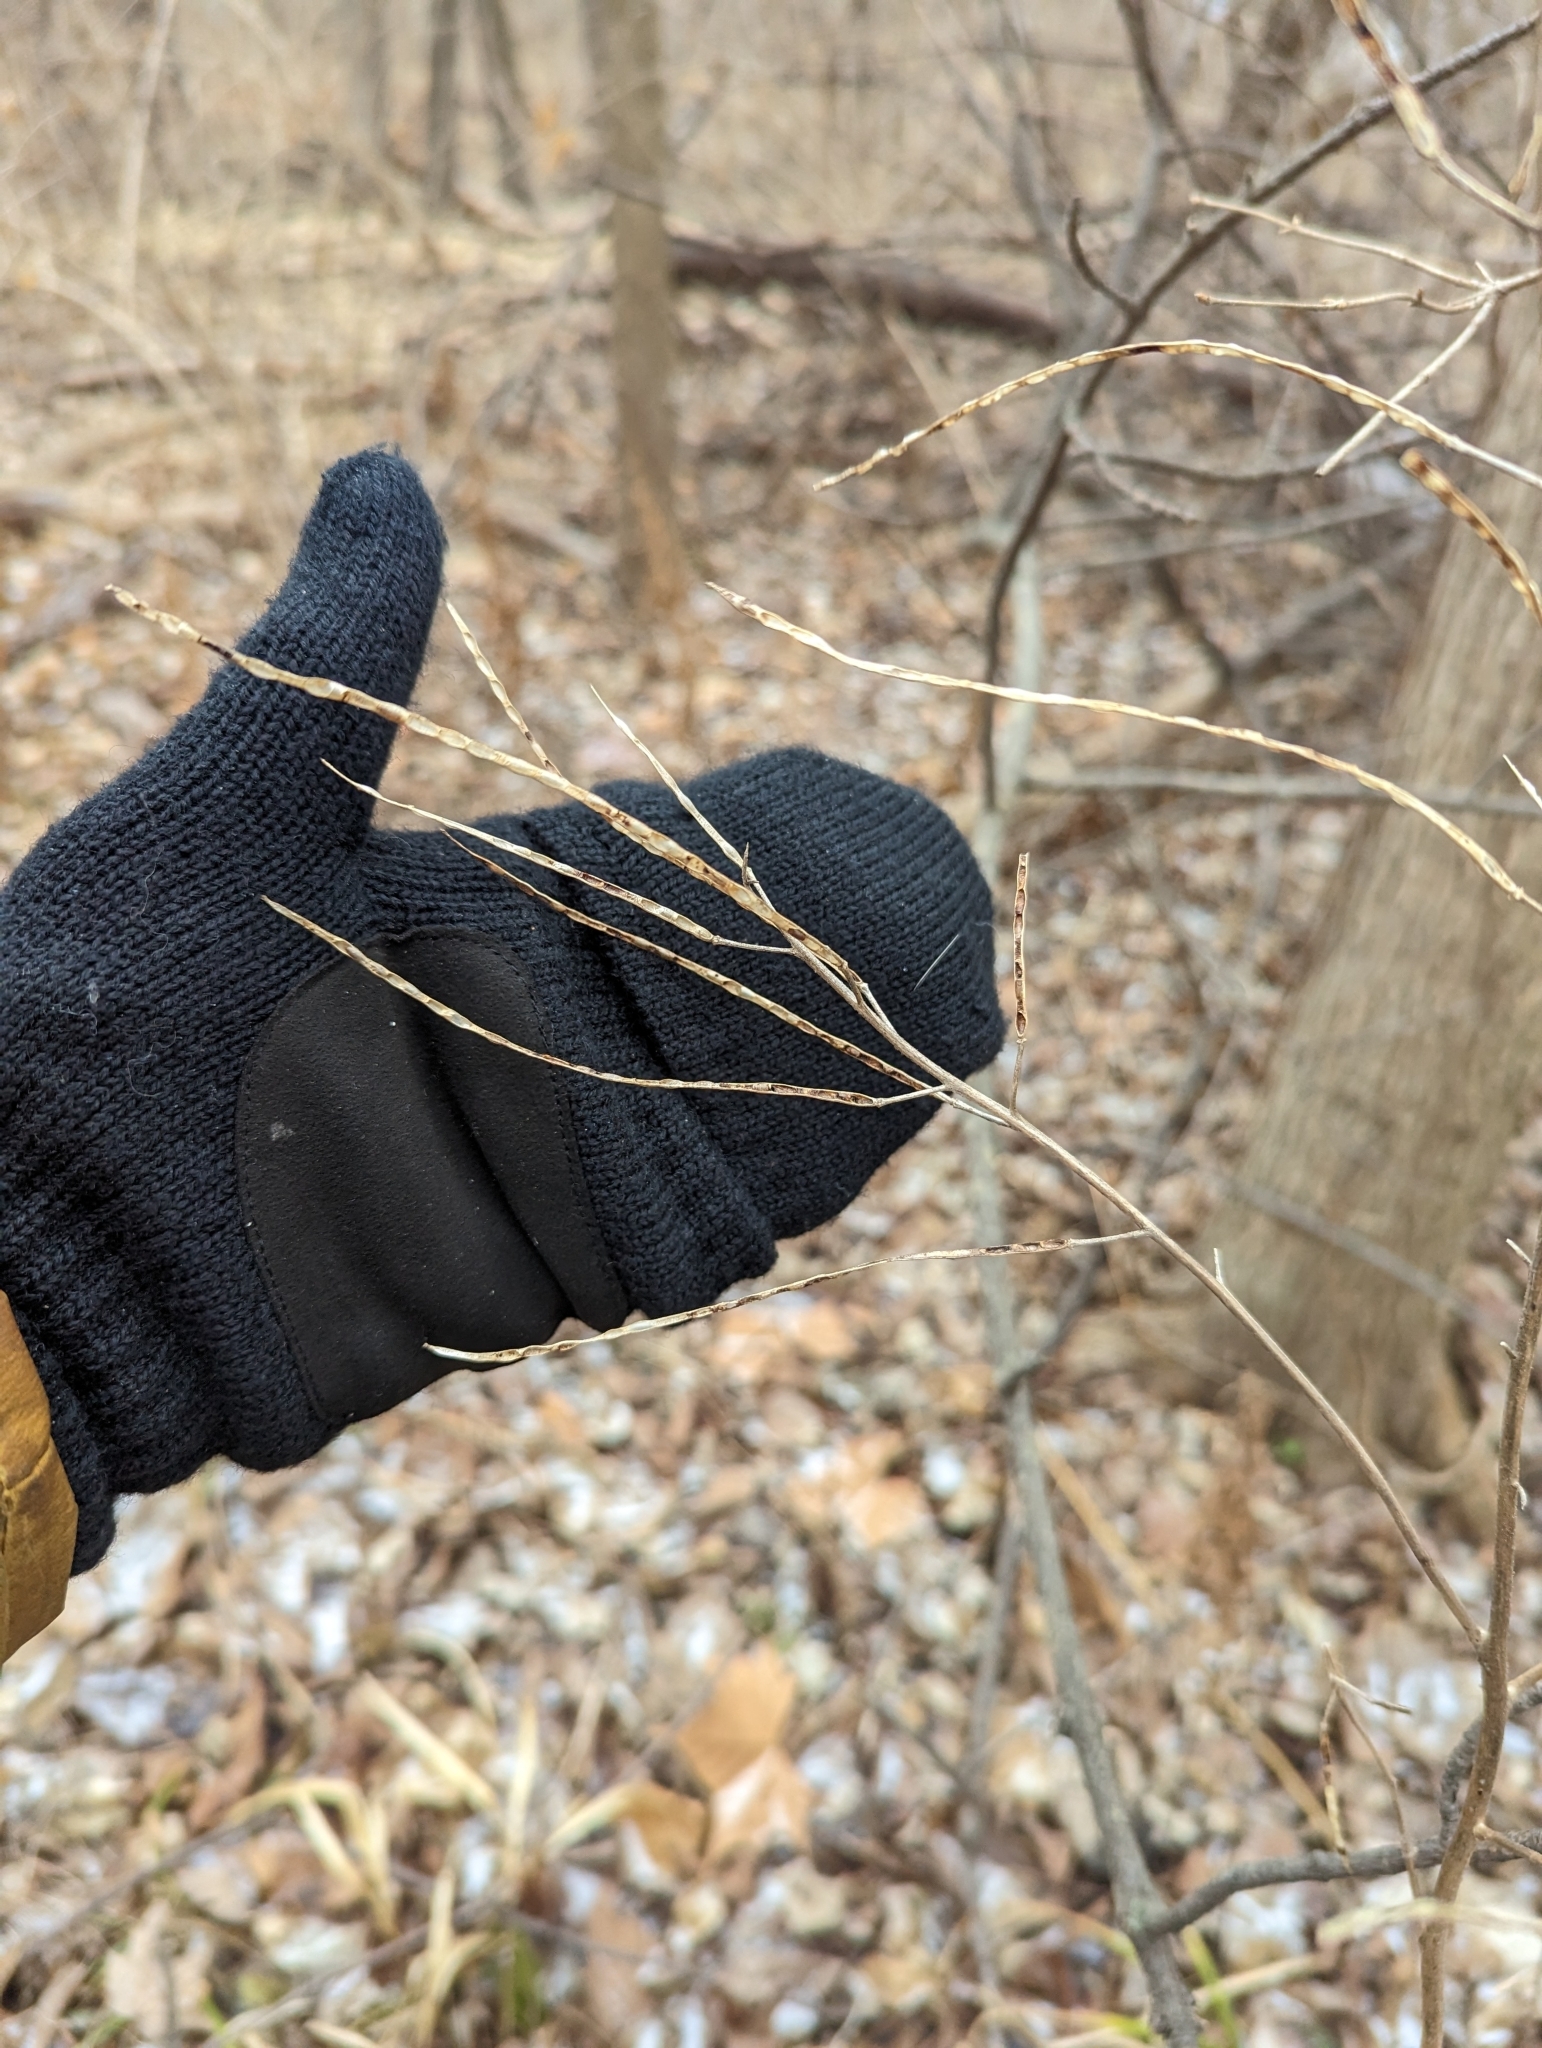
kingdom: Plantae
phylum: Tracheophyta
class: Magnoliopsida
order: Brassicales
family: Brassicaceae
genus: Hesperis
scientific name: Hesperis matronalis
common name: Dame's-violet
